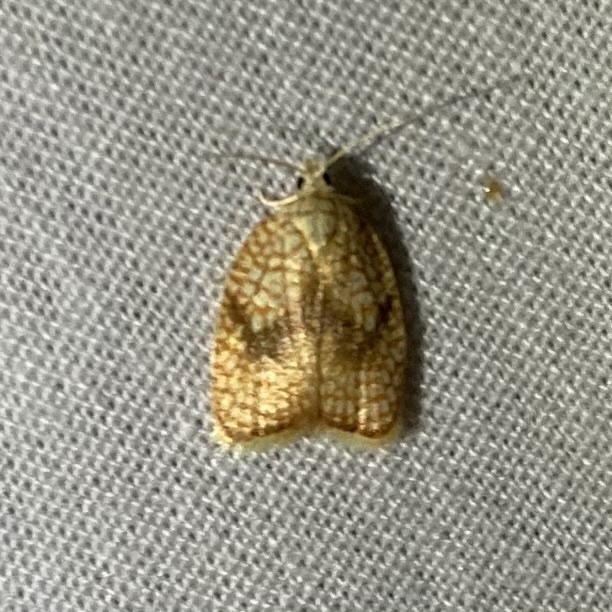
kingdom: Animalia
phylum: Arthropoda
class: Insecta
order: Lepidoptera
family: Tortricidae
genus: Acleris
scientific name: Acleris forsskaleana
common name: Maple button
